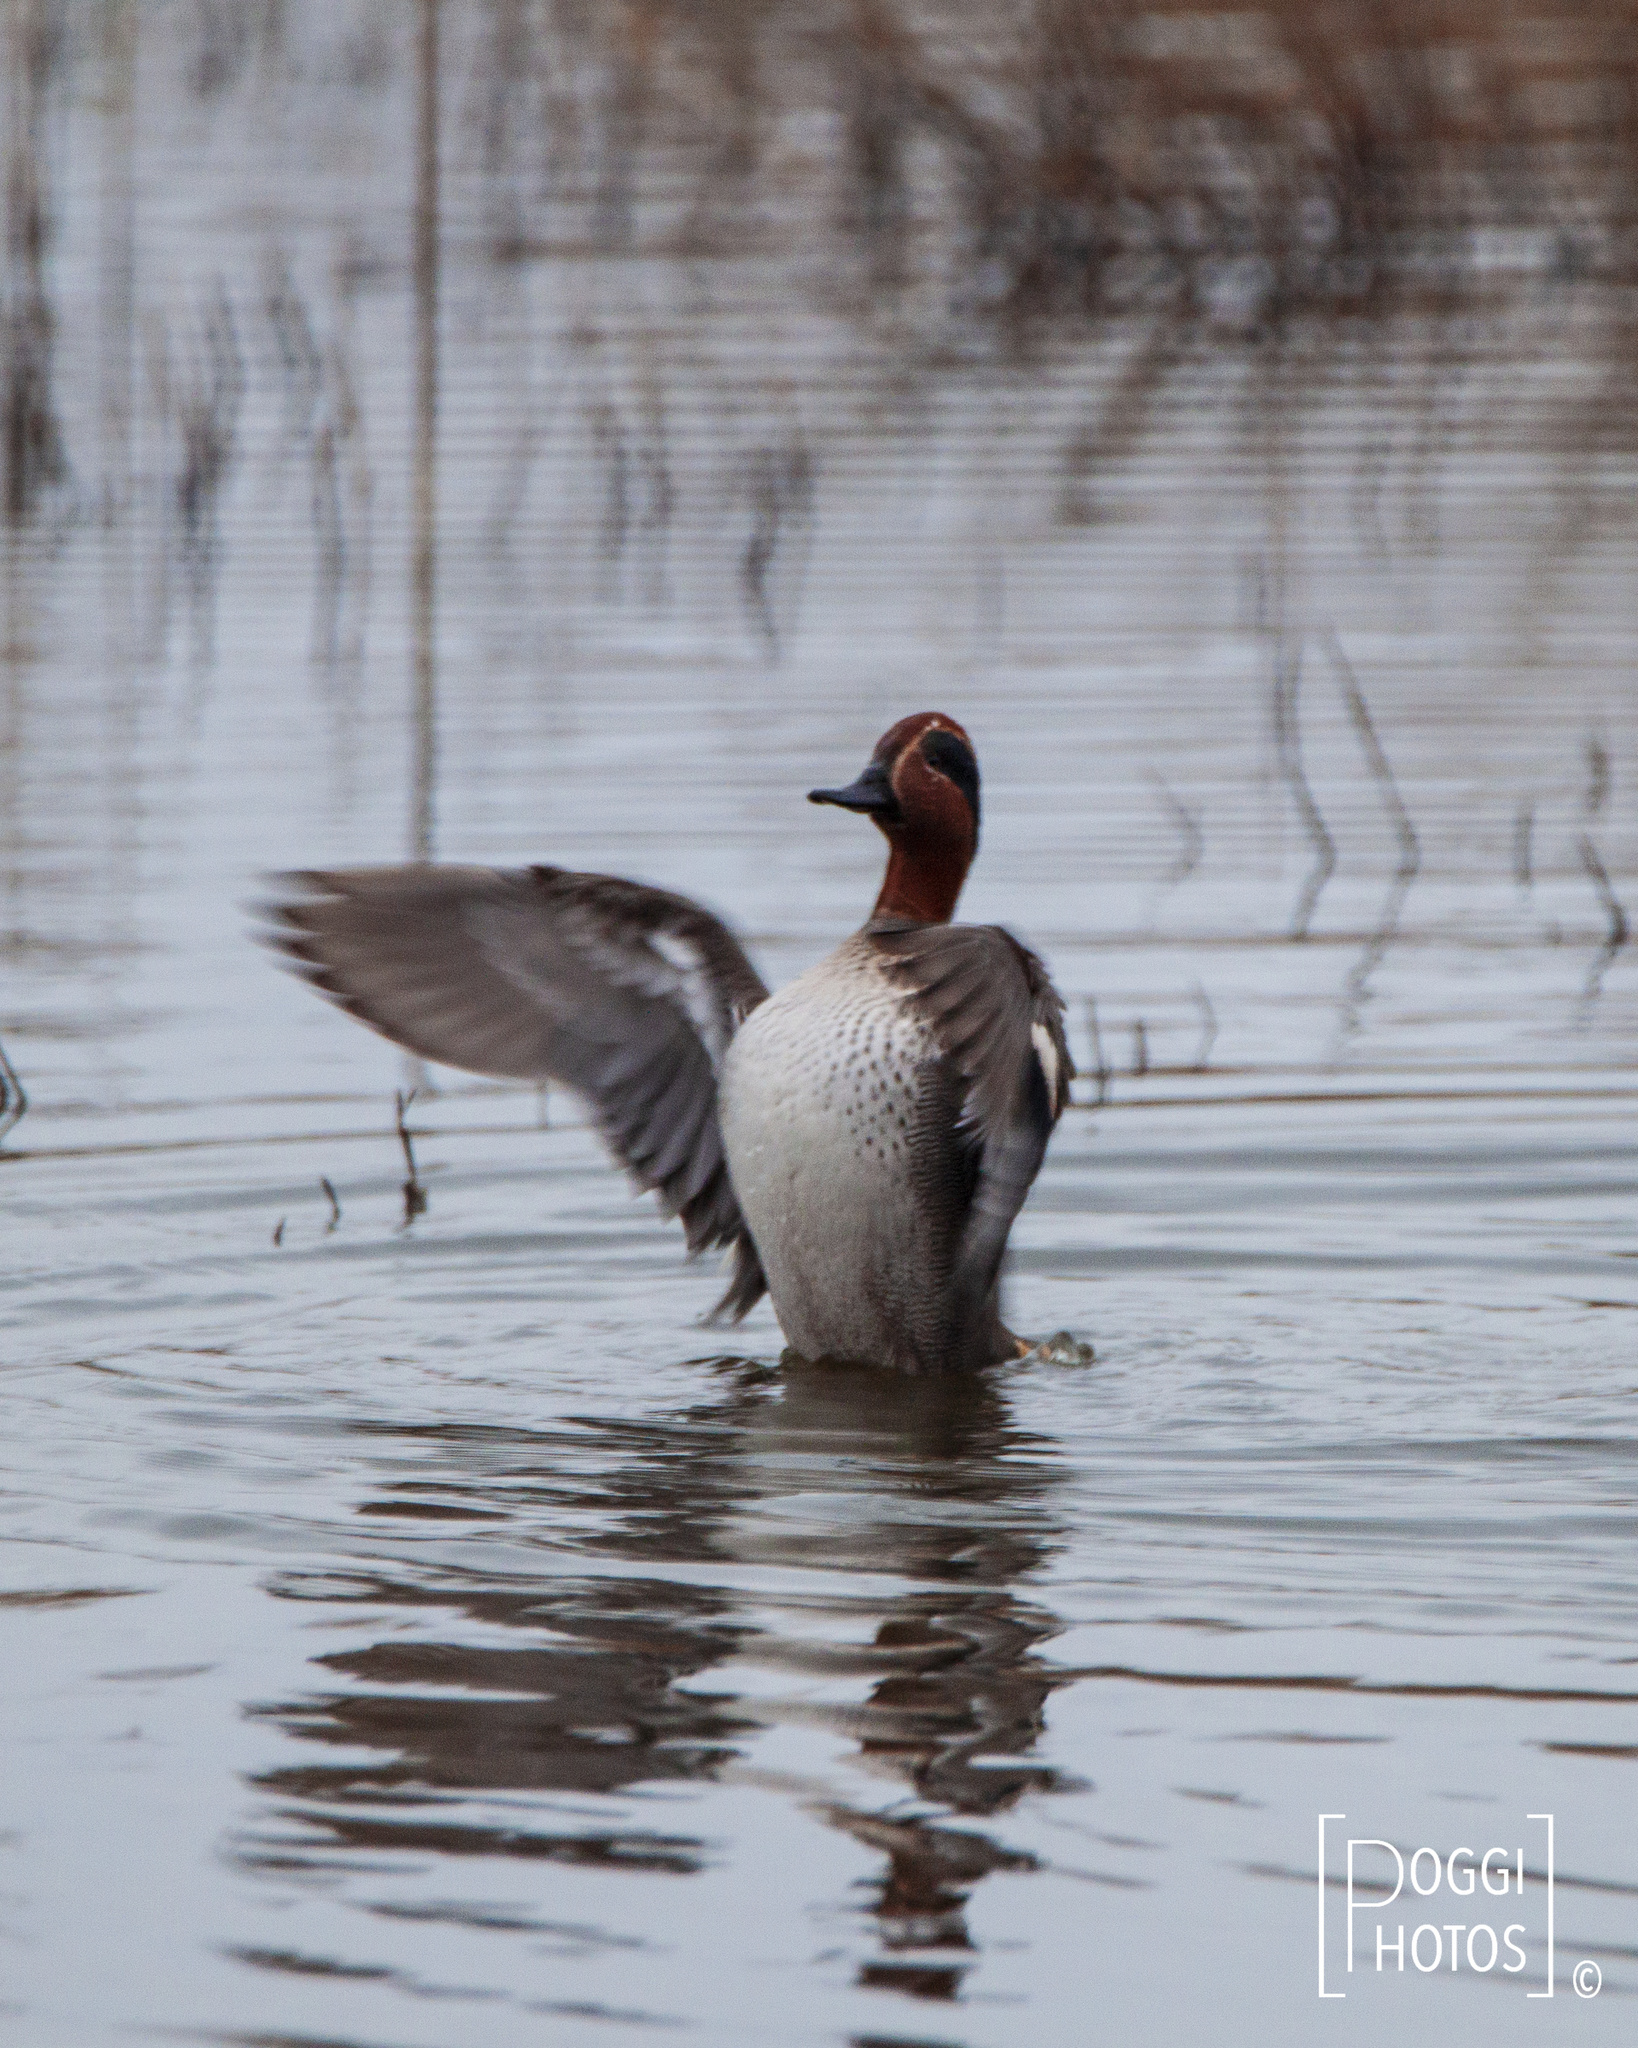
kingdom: Animalia
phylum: Chordata
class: Aves
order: Anseriformes
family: Anatidae
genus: Anas
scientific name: Anas crecca
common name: Eurasian teal
